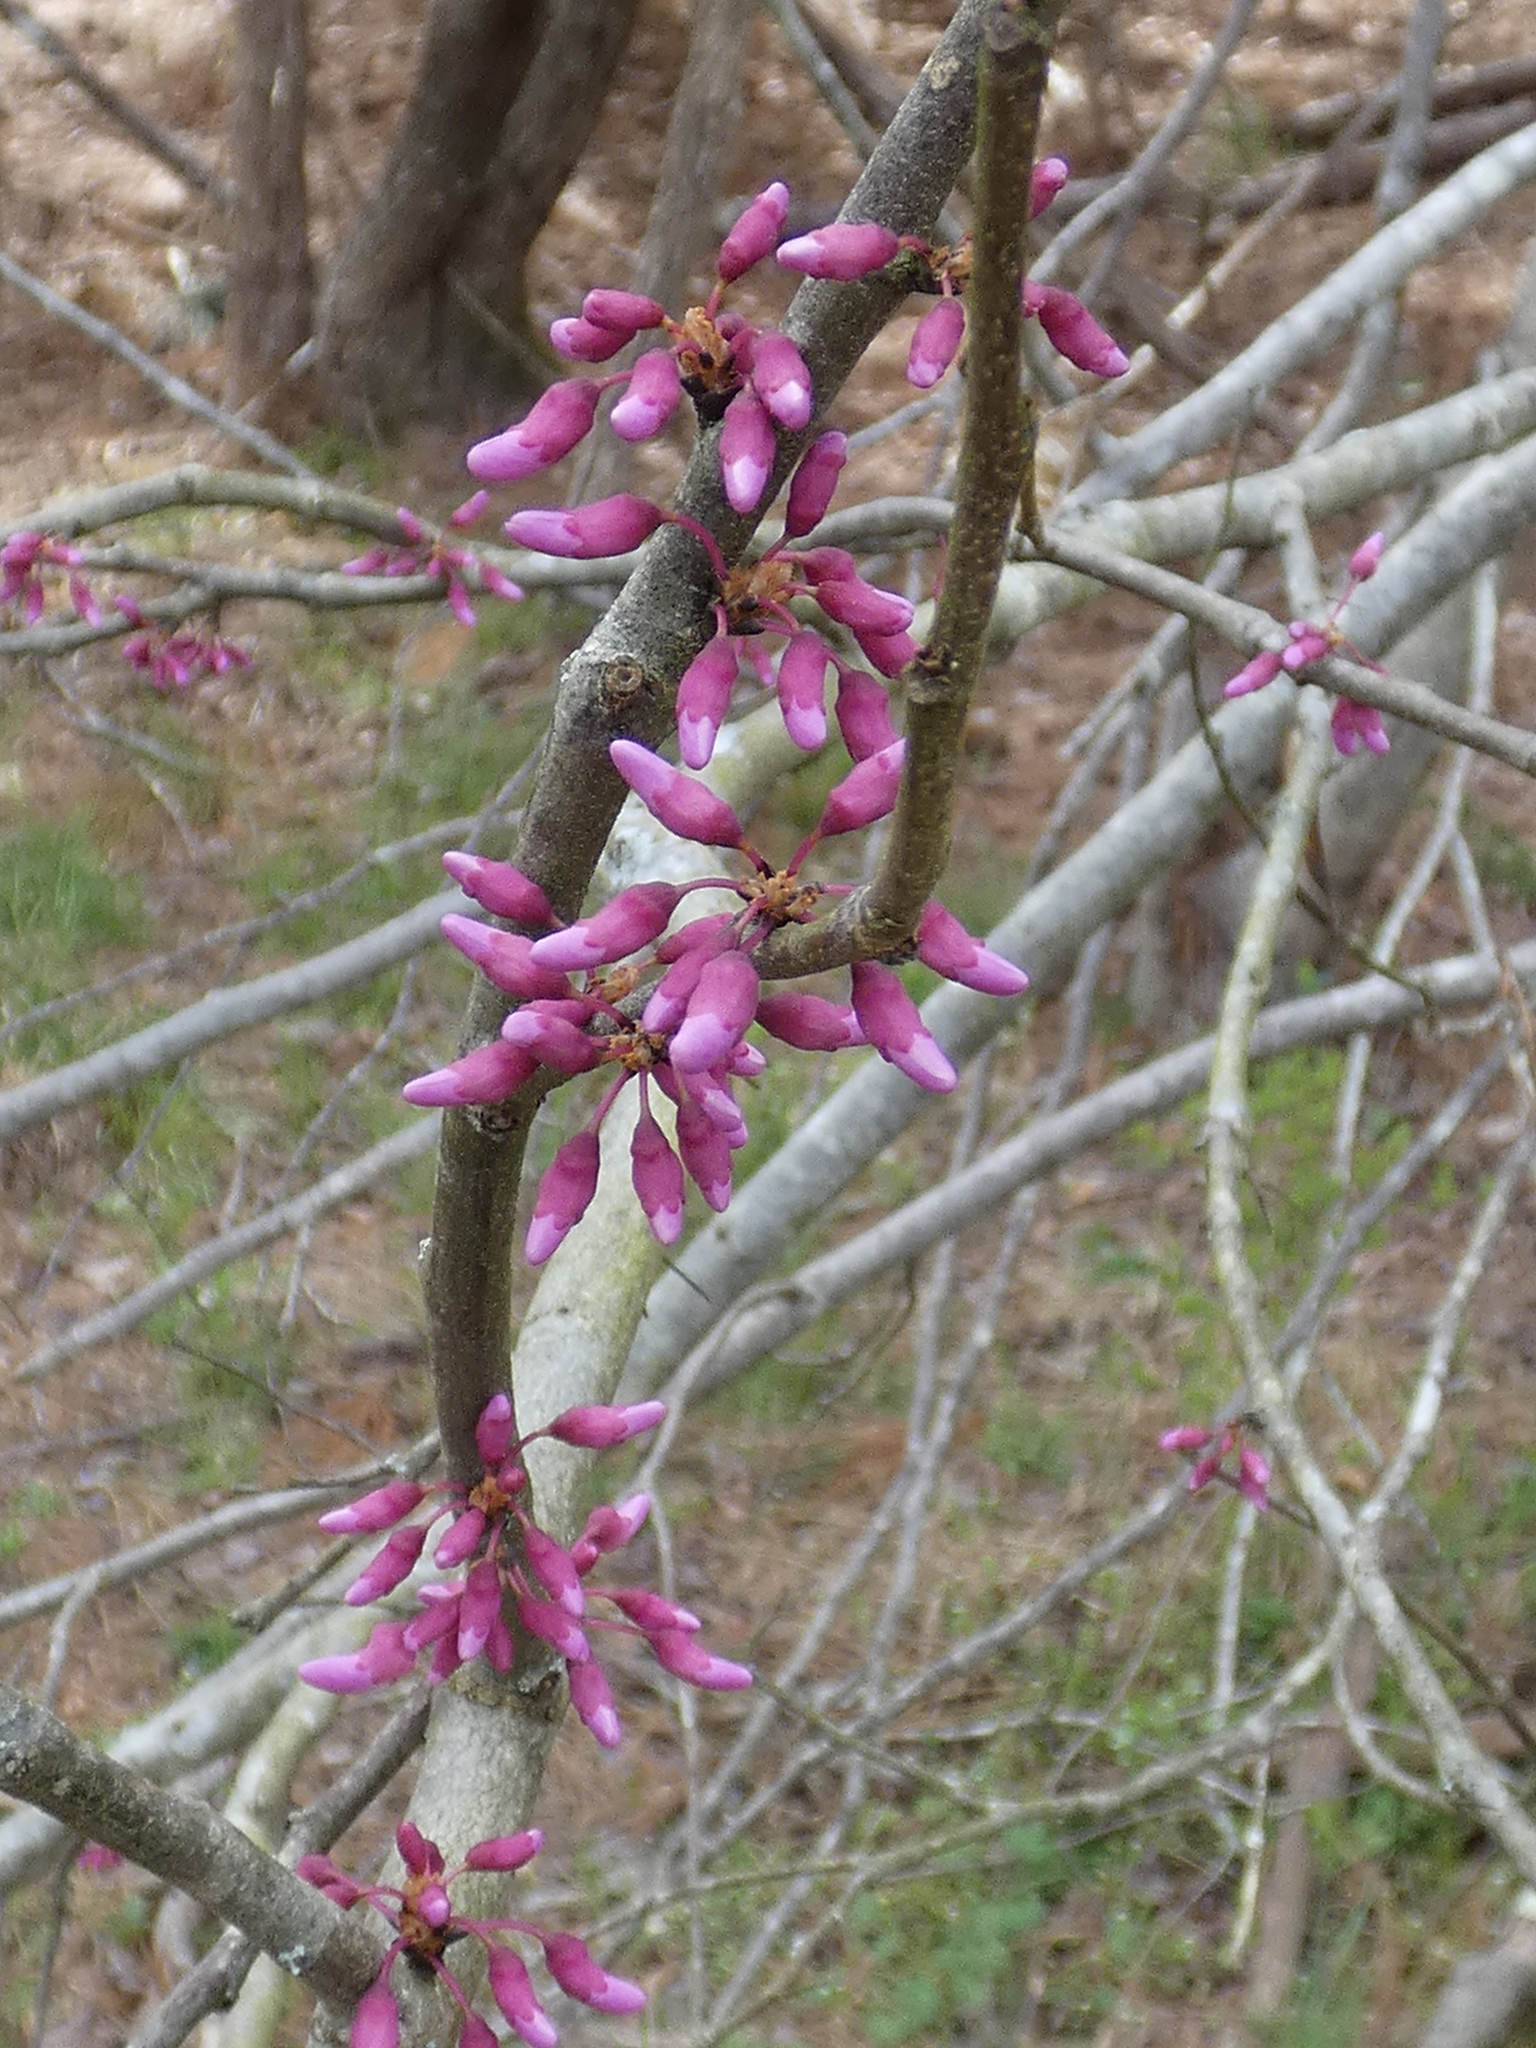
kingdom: Plantae
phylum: Tracheophyta
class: Magnoliopsida
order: Fabales
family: Fabaceae
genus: Cercis
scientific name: Cercis canadensis
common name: Eastern redbud
